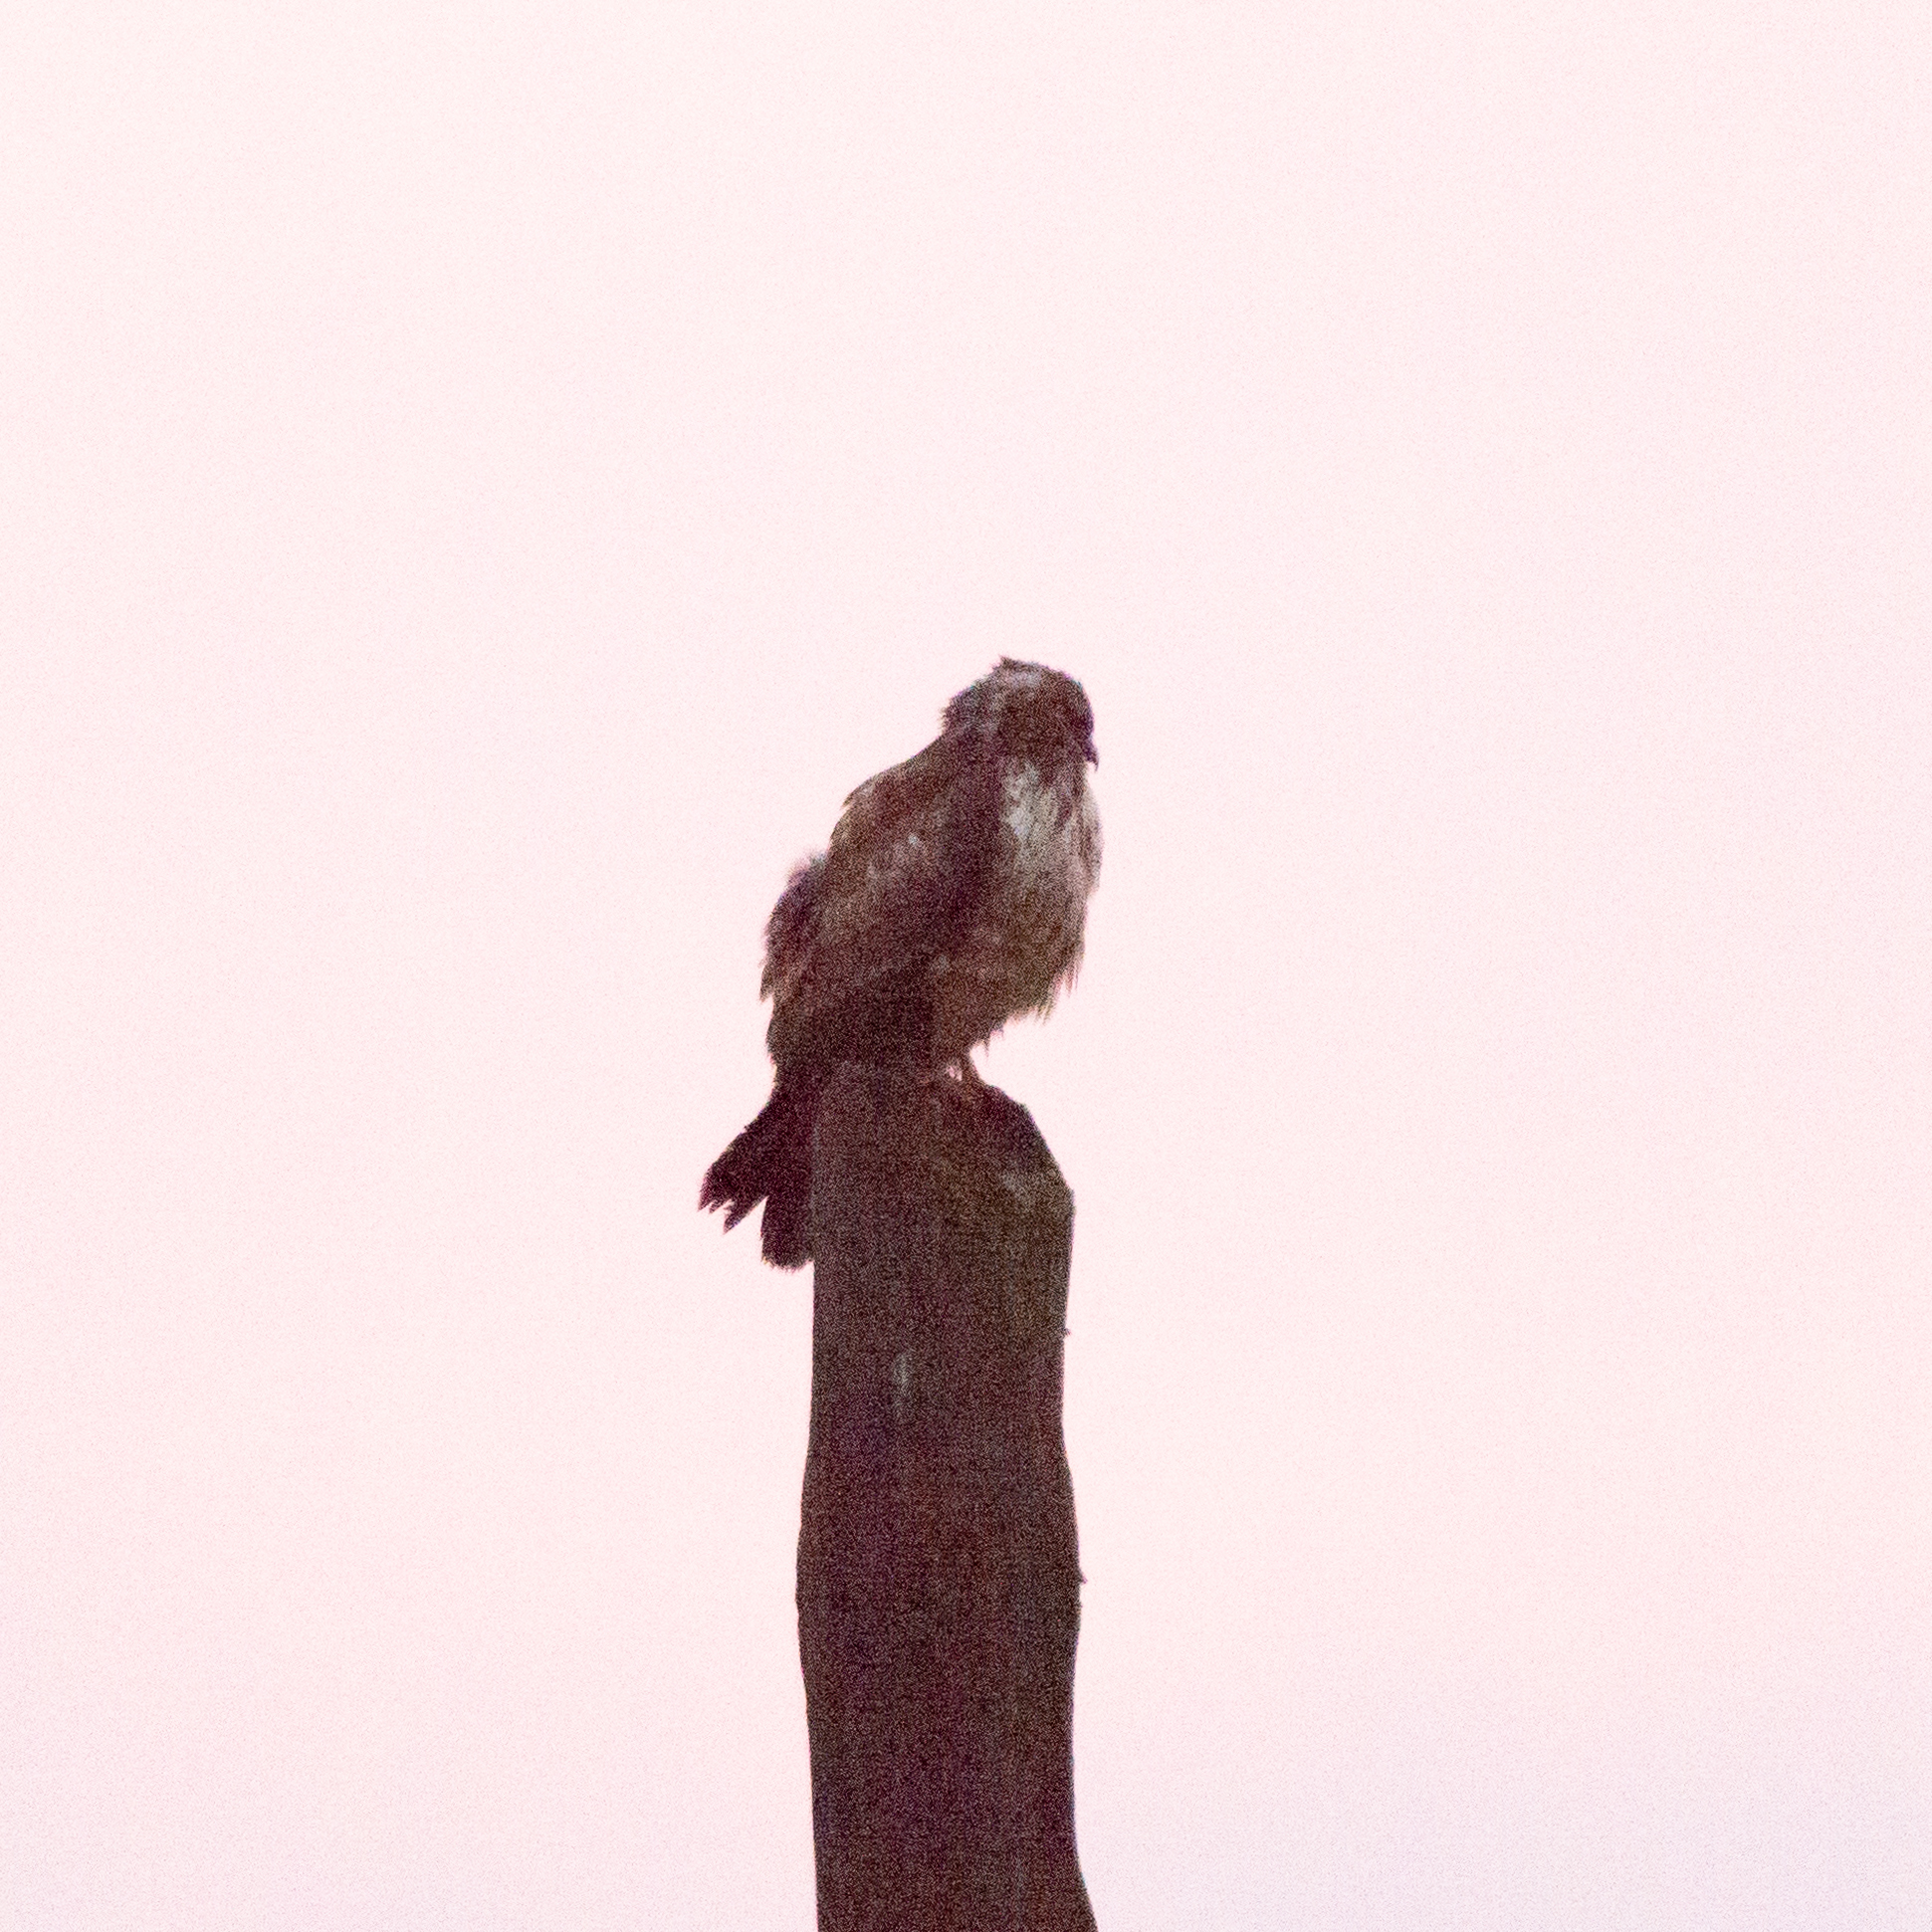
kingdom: Animalia
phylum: Chordata
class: Aves
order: Accipitriformes
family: Accipitridae
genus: Buteo
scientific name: Buteo buteo
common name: Common buzzard
